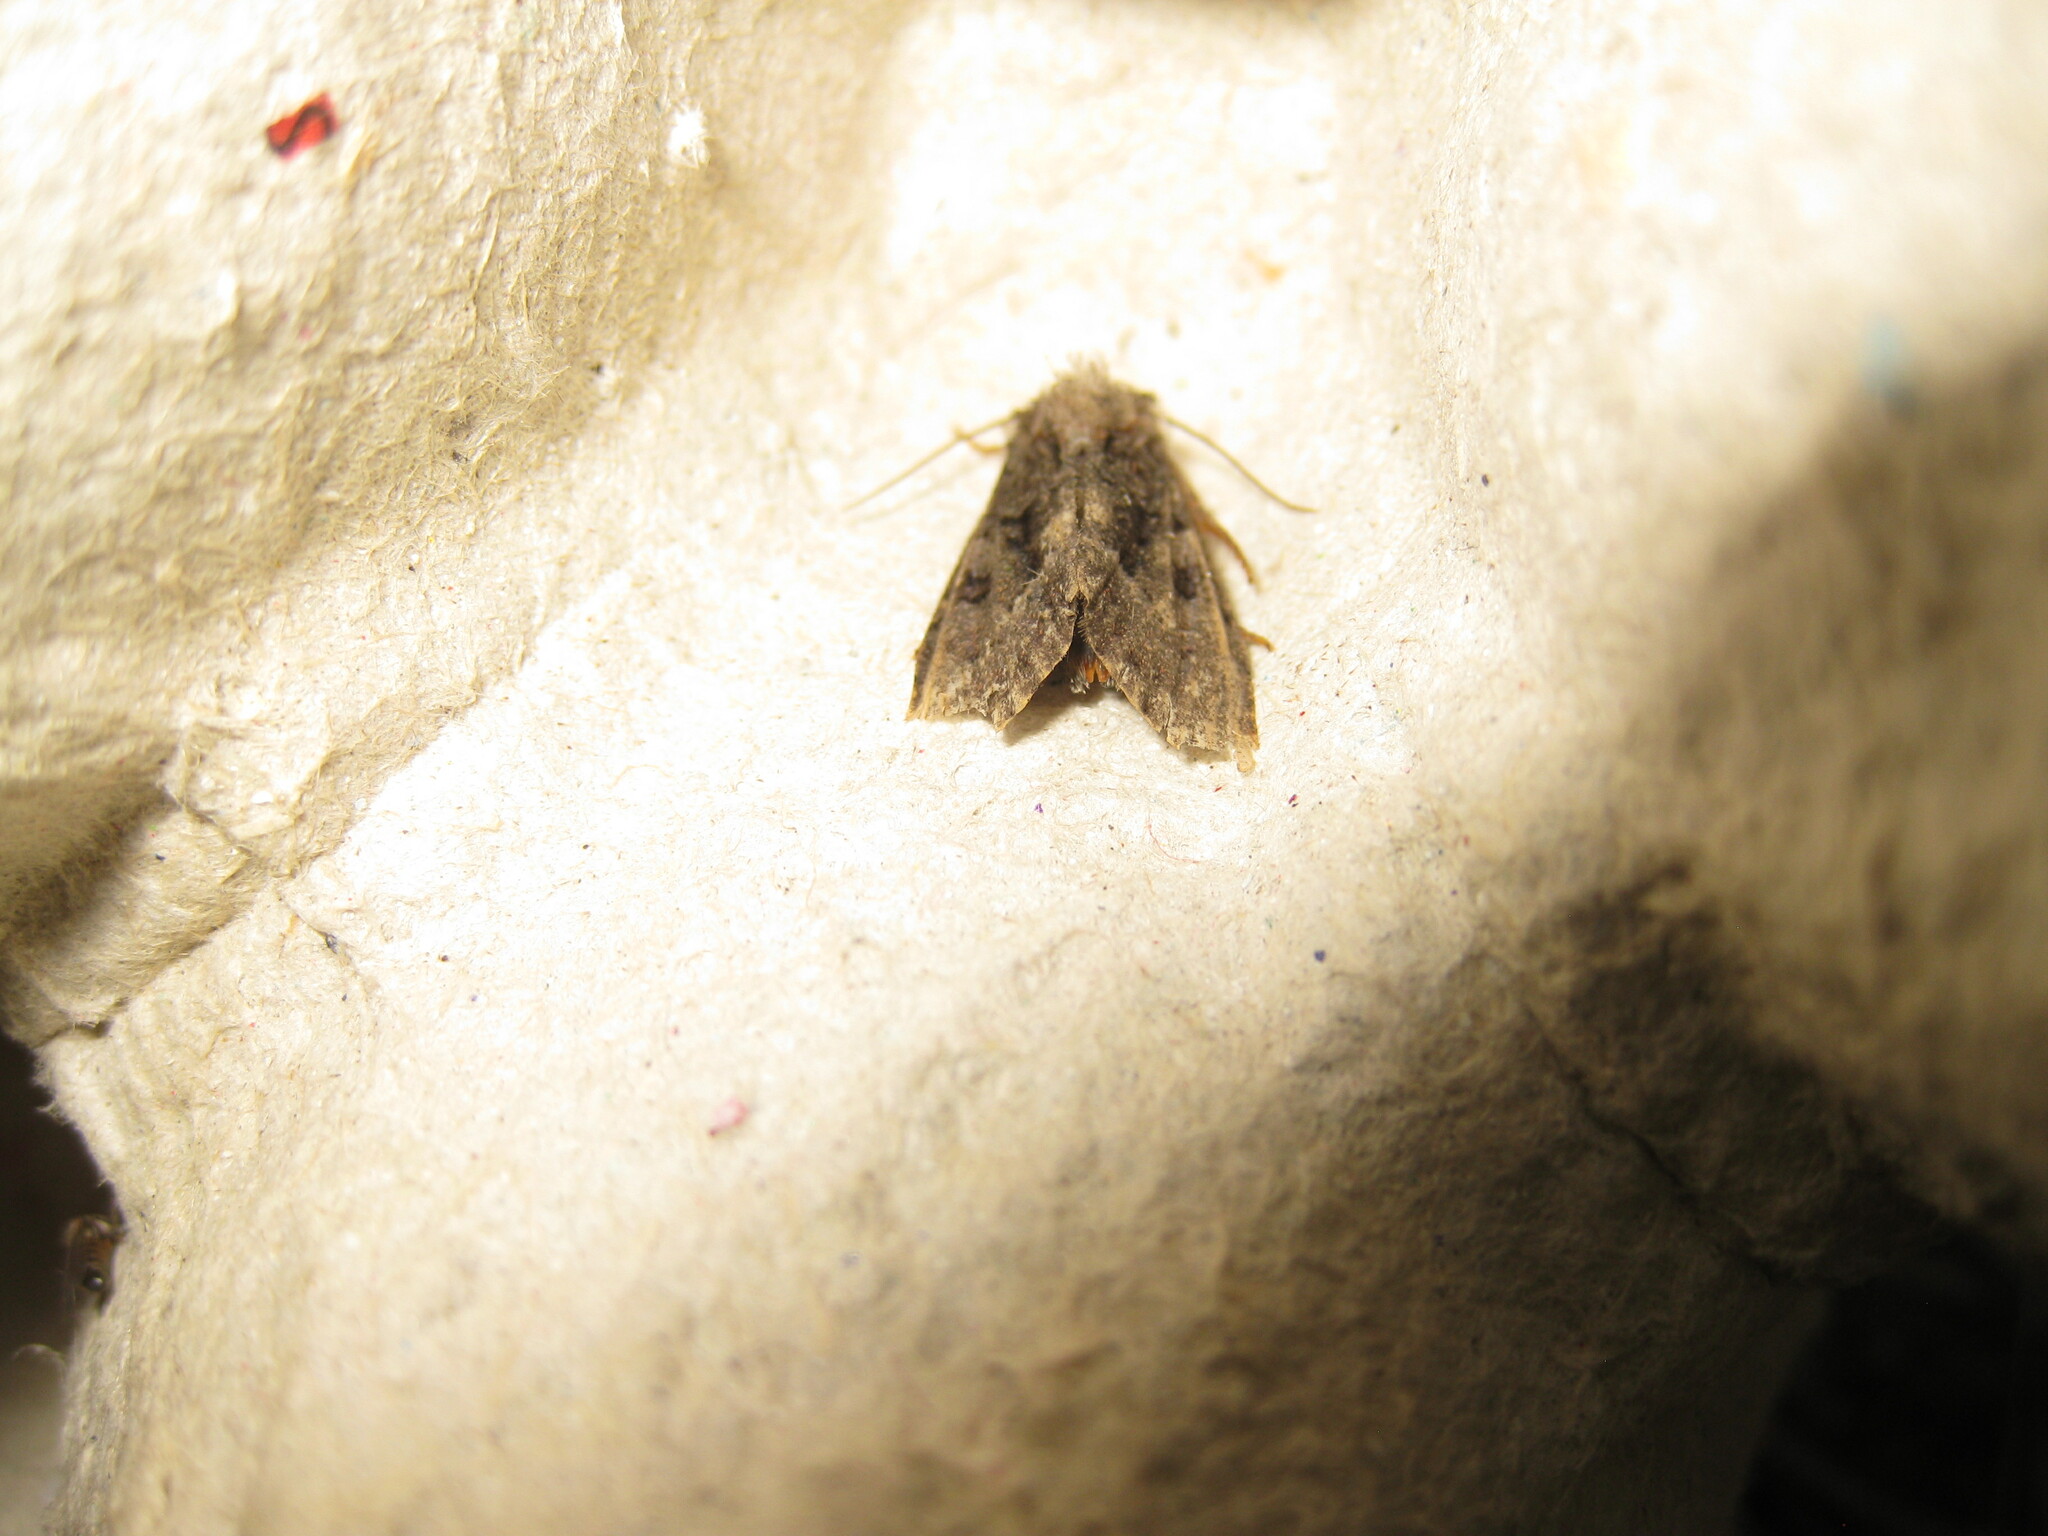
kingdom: Animalia
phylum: Arthropoda
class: Insecta
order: Lepidoptera
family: Drepanidae
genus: Ochropacha
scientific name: Ochropacha duplaris
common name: Common lutestring
